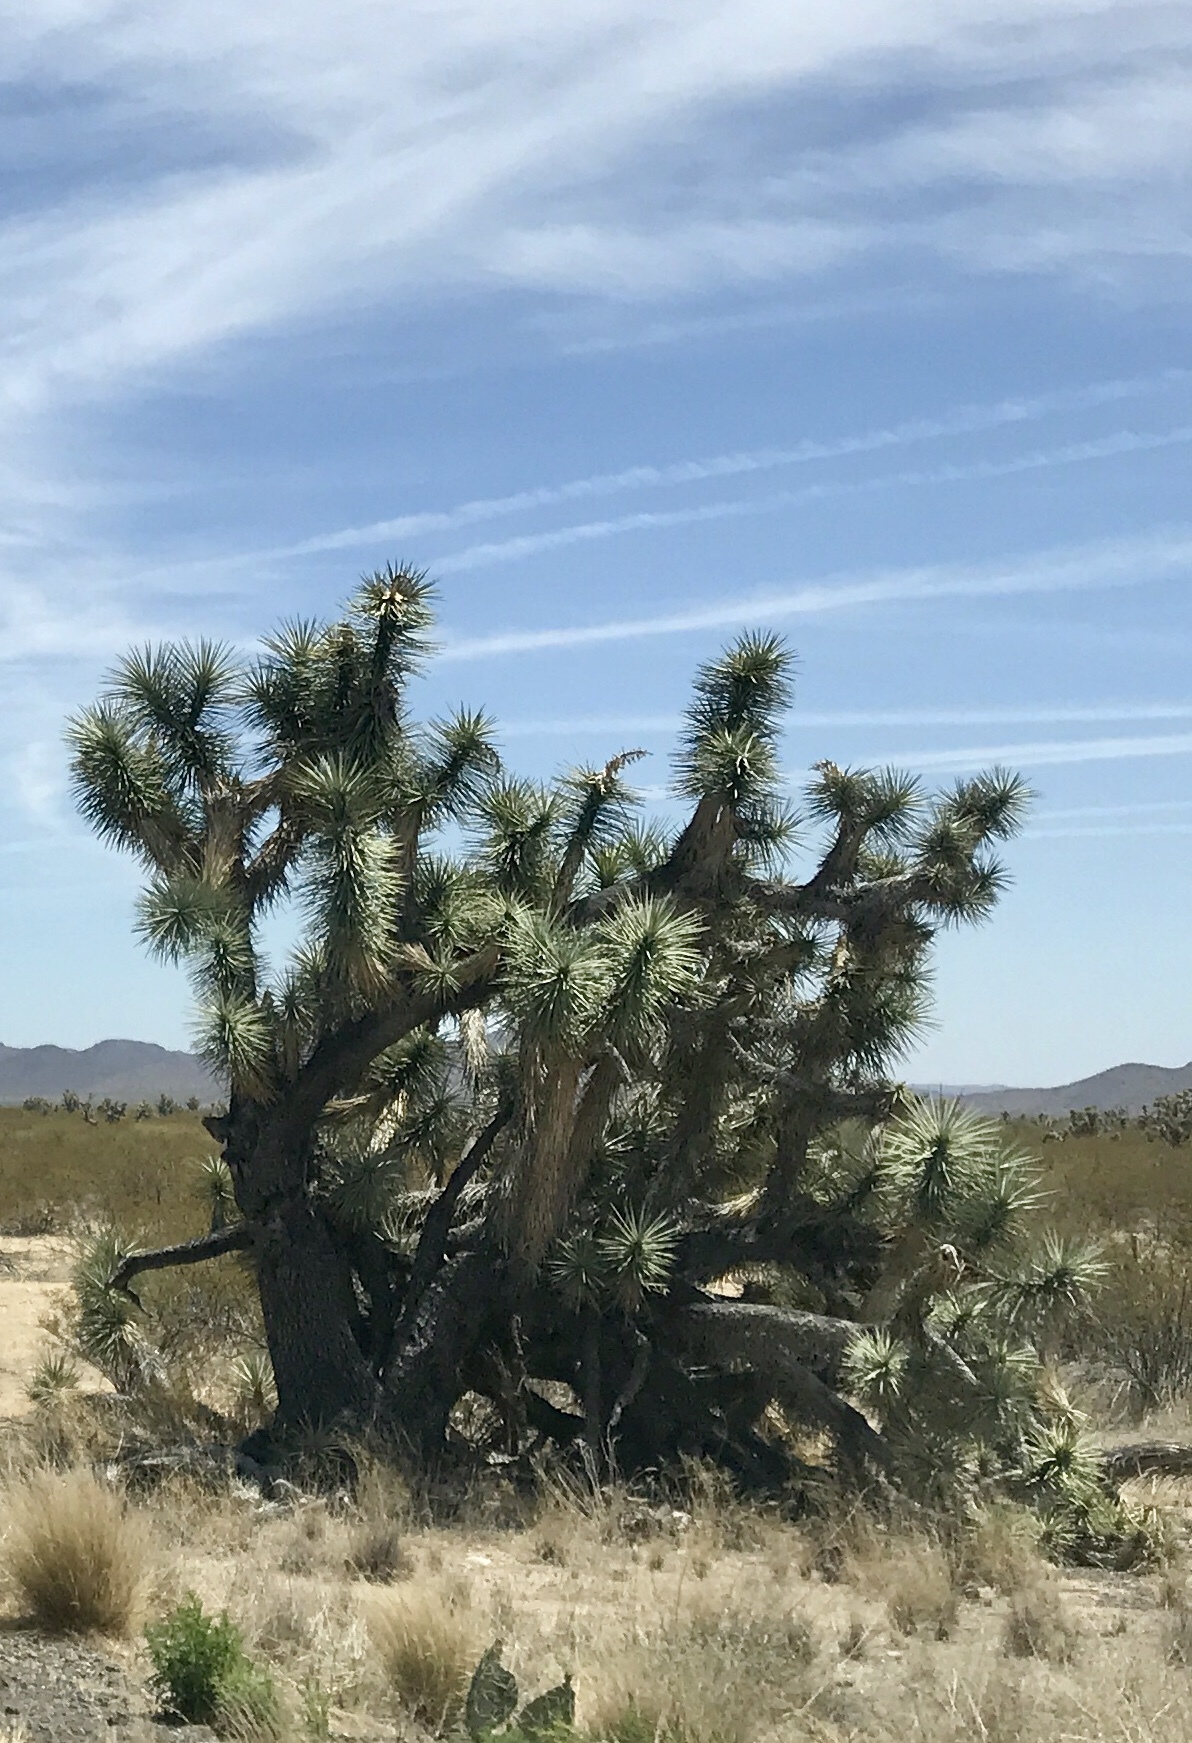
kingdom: Plantae
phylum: Tracheophyta
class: Liliopsida
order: Asparagales
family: Asparagaceae
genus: Yucca
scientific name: Yucca brevifolia
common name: Joshua tree
